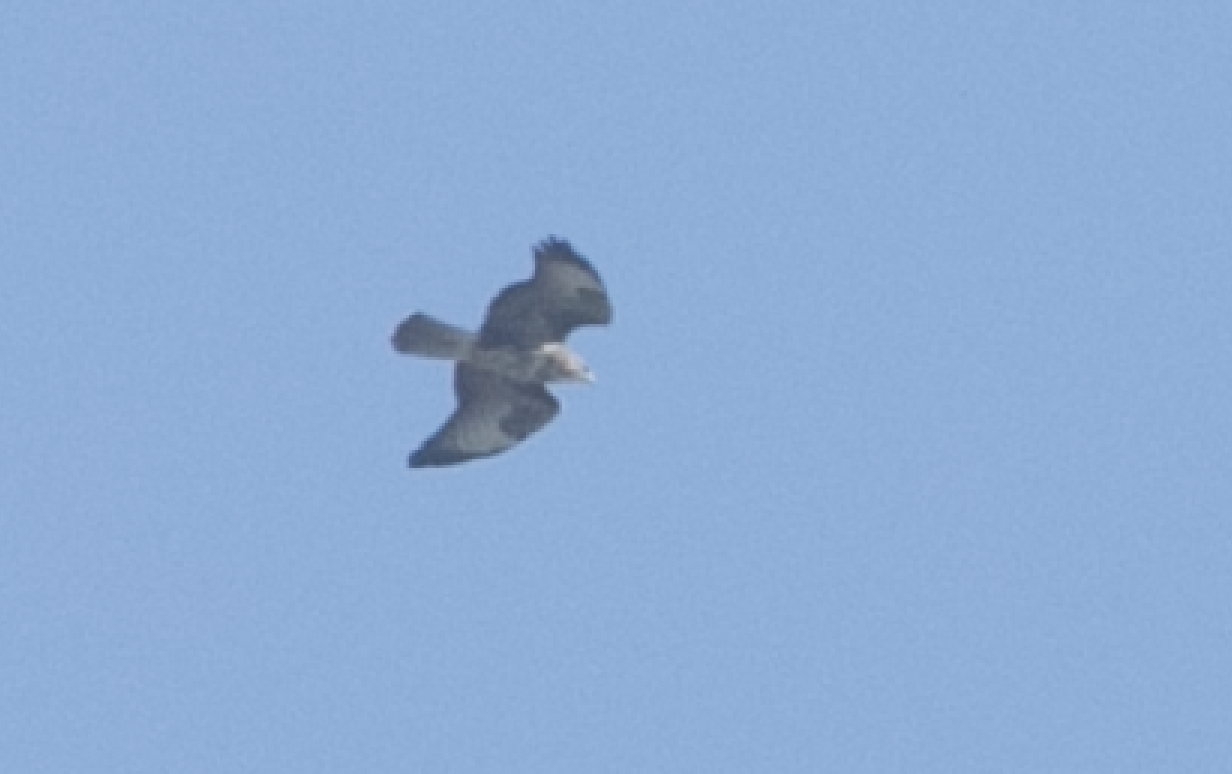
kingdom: Animalia
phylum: Chordata
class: Aves
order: Accipitriformes
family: Accipitridae
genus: Buteo
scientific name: Buteo buteo
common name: Common buzzard
